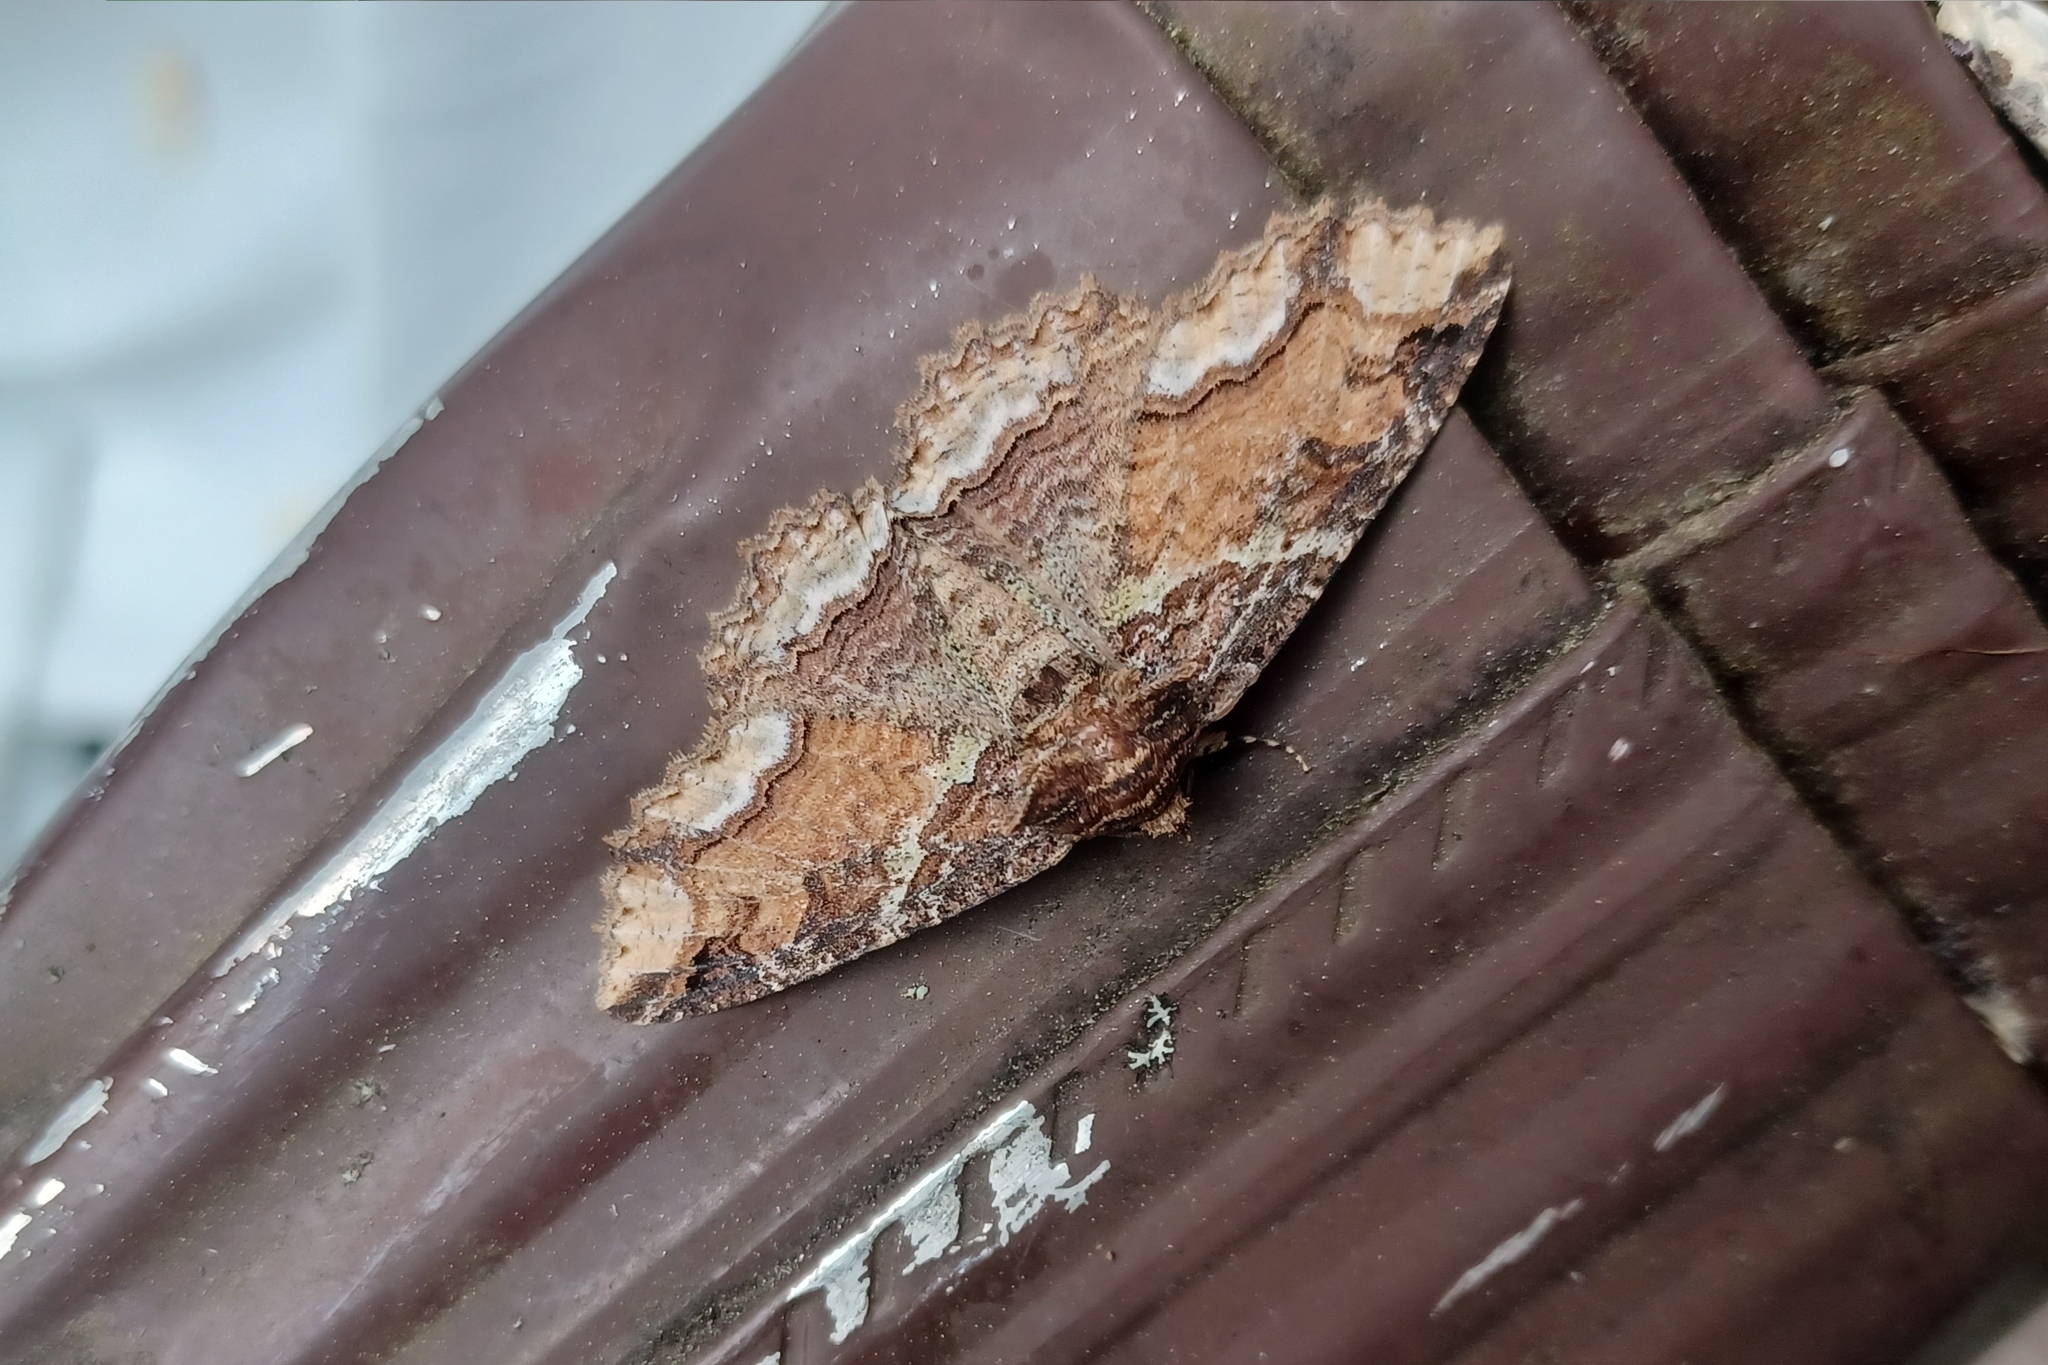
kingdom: Animalia
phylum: Arthropoda
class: Insecta
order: Lepidoptera
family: Erebidae
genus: Zale
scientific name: Zale minerea
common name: Colorful zale moth
